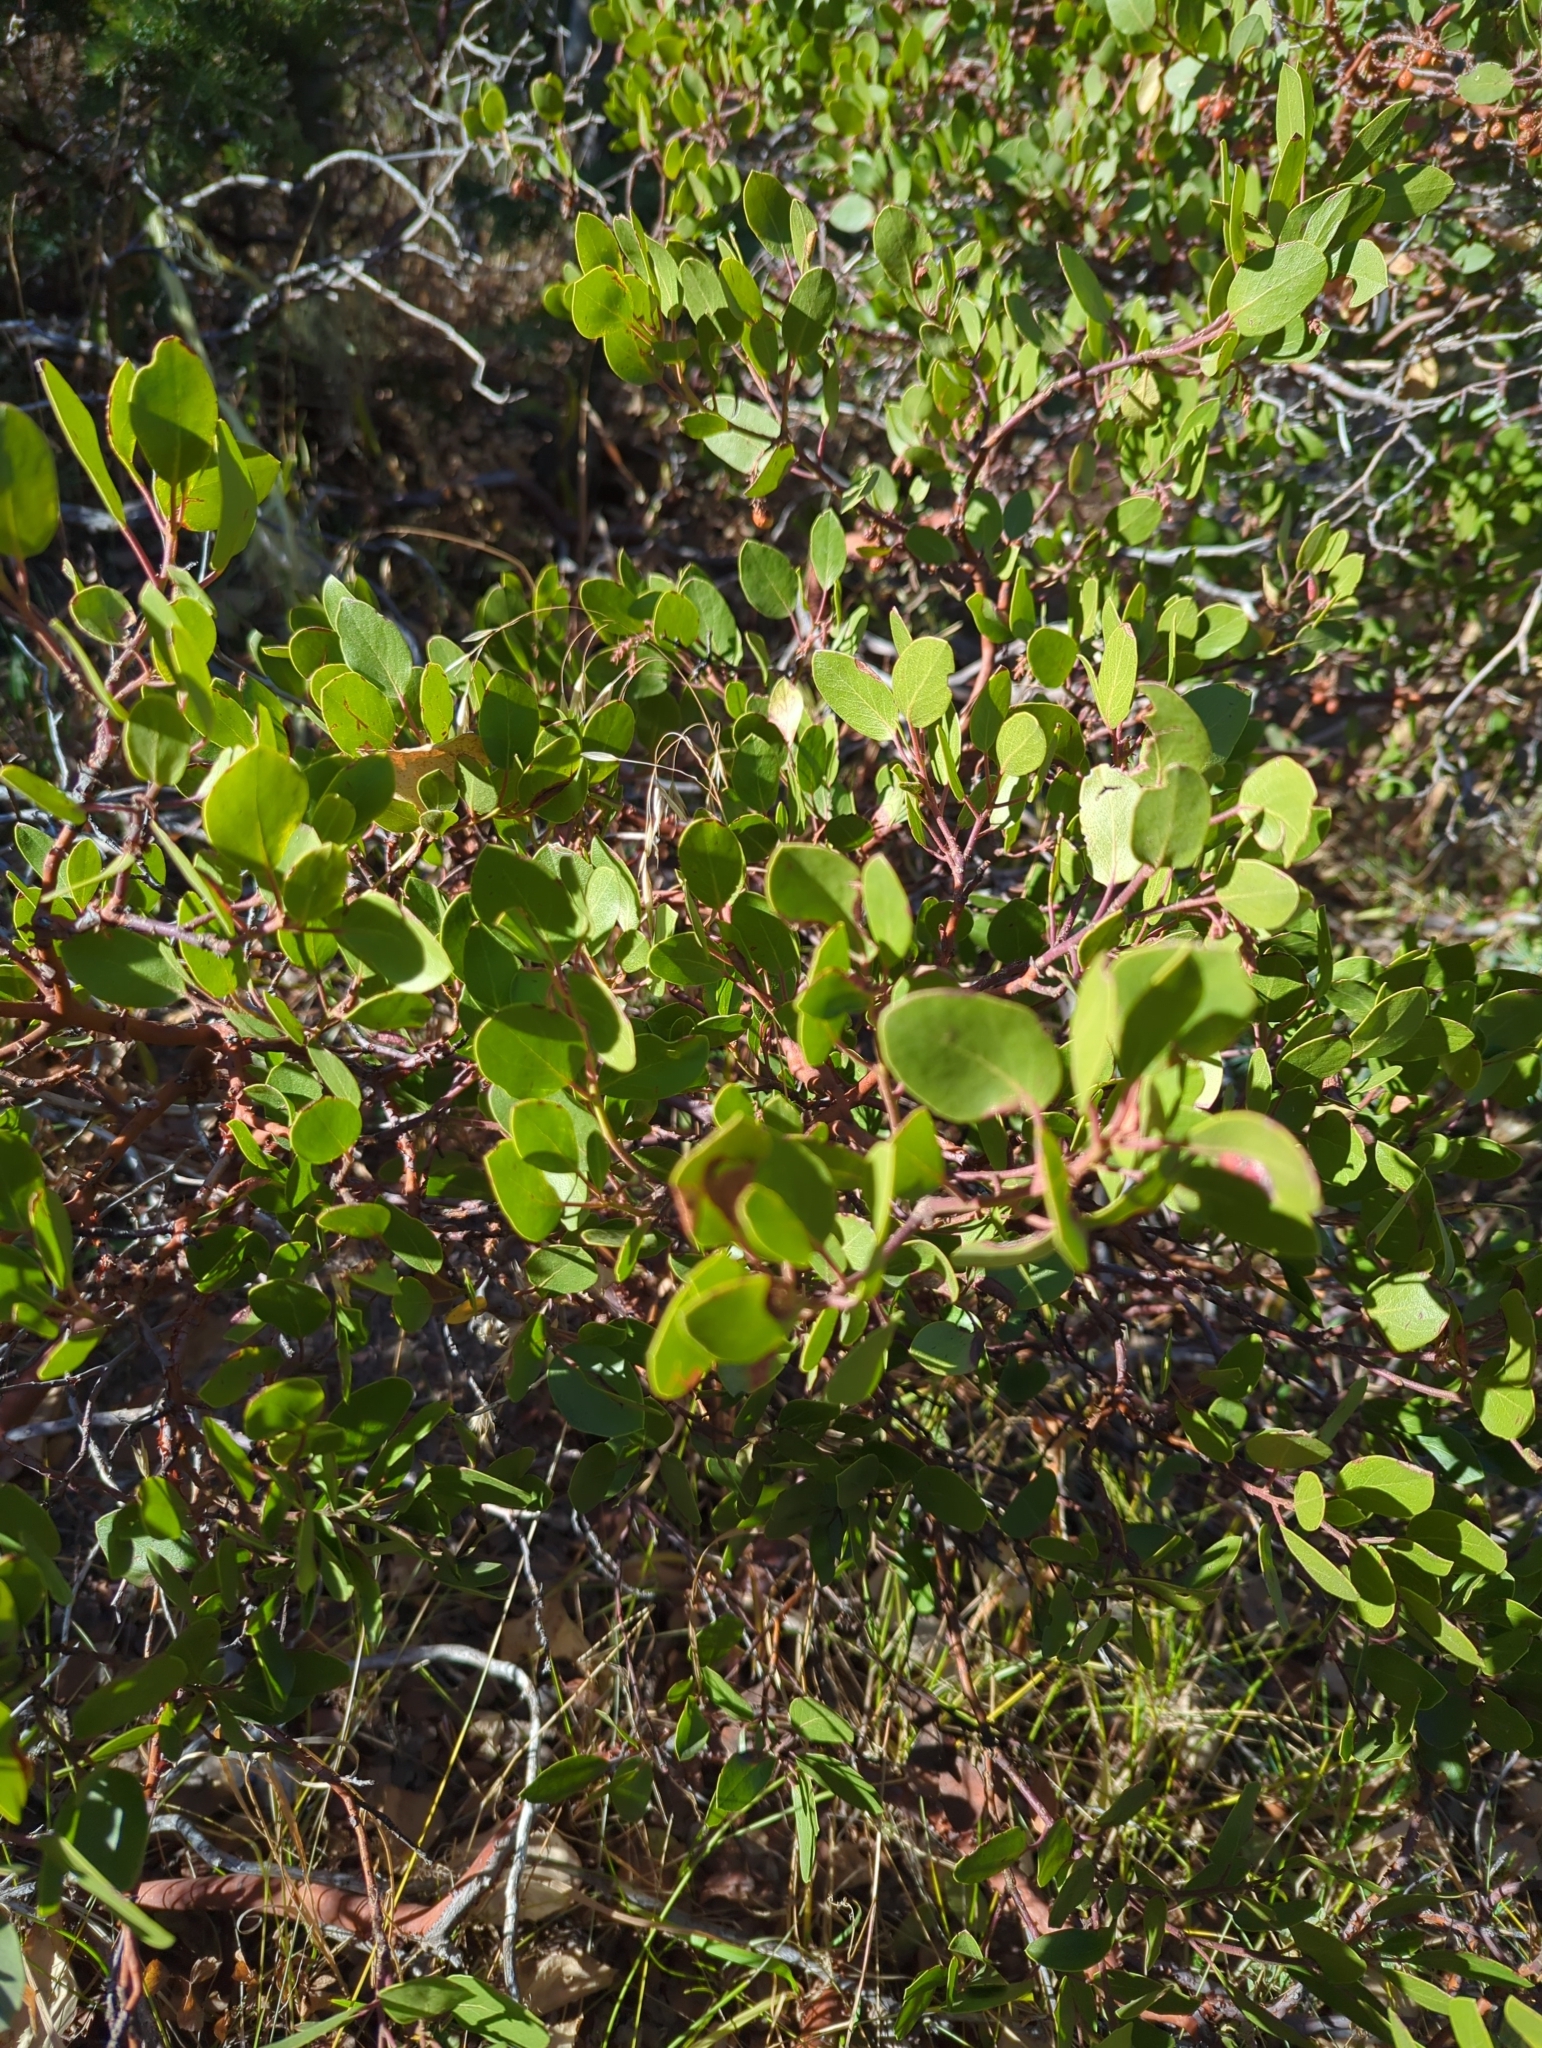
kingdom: Plantae
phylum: Tracheophyta
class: Magnoliopsida
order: Ericales
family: Ericaceae
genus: Arctostaphylos
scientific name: Arctostaphylos patula
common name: Green-leaf manzanita
